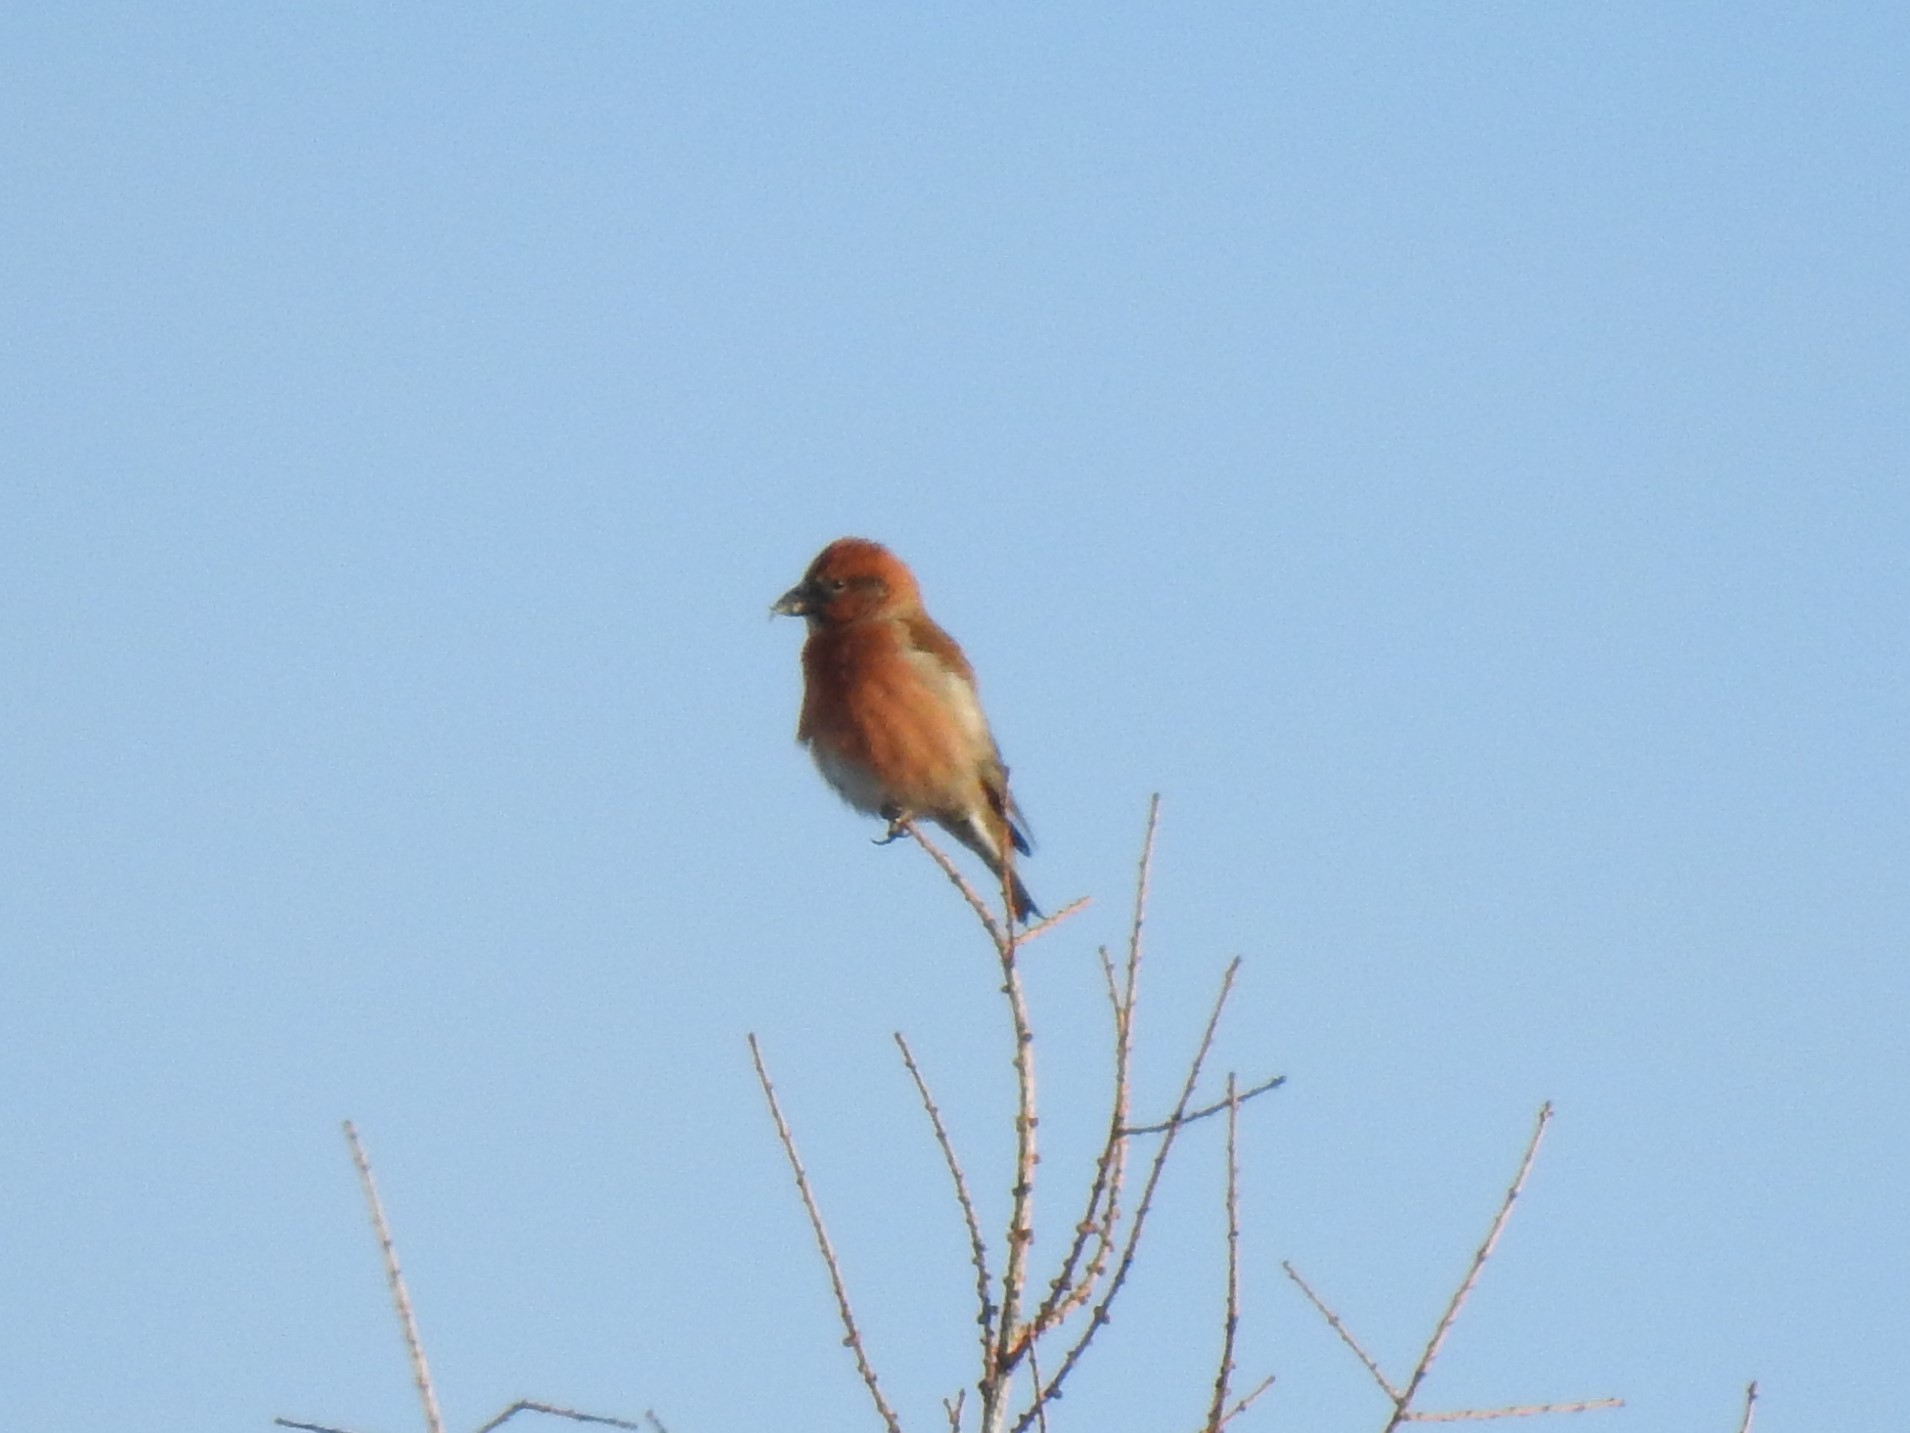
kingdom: Animalia
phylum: Chordata
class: Aves
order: Passeriformes
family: Fringillidae
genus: Loxia
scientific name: Loxia curvirostra
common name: Red crossbill
